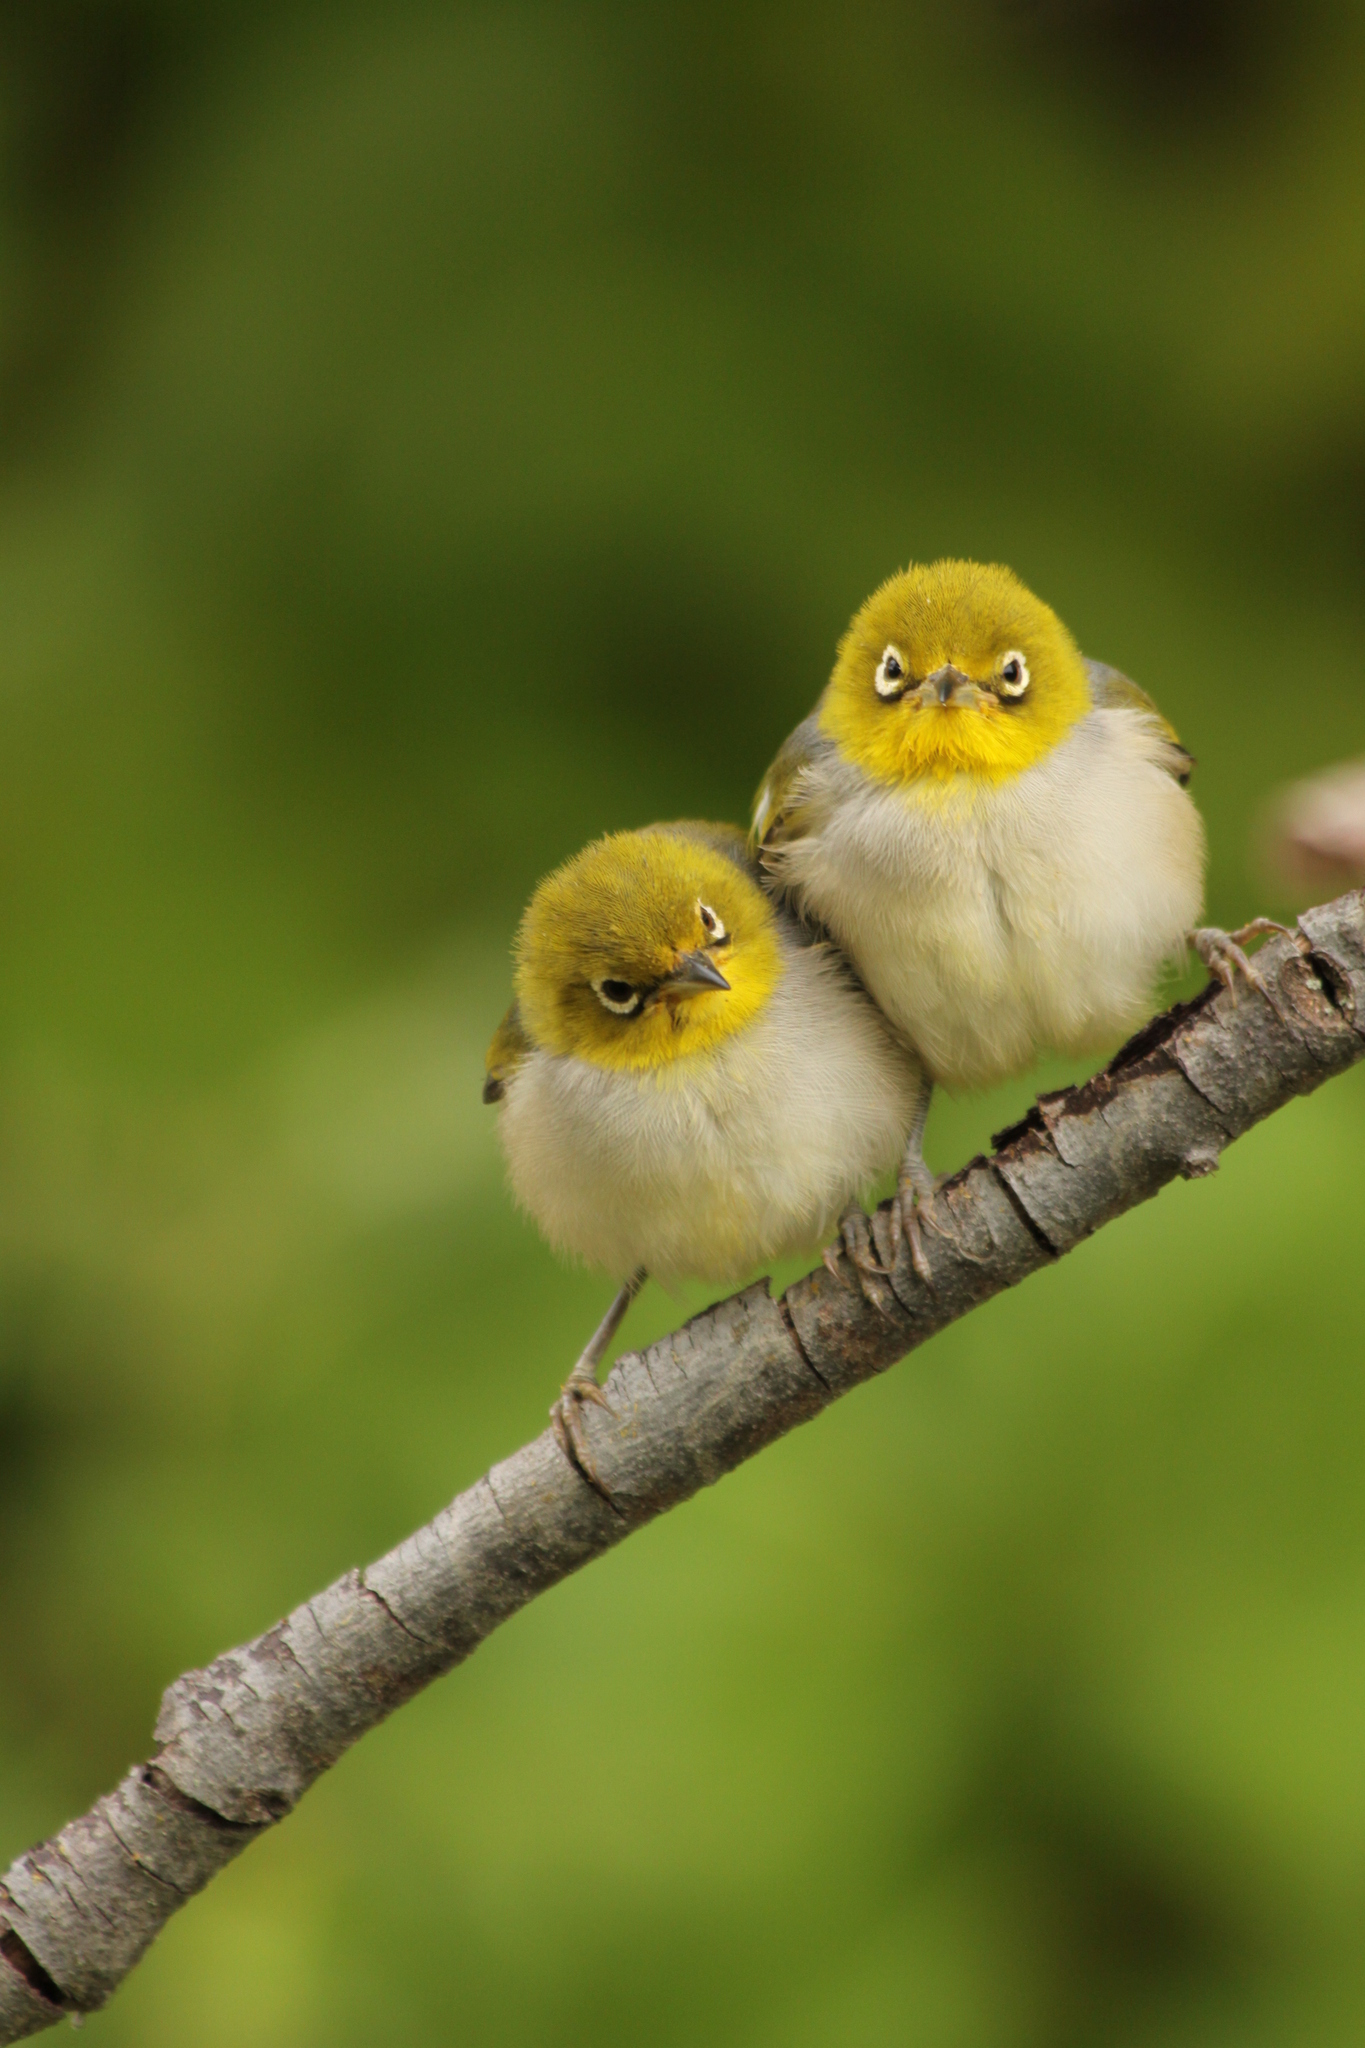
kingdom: Animalia
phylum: Chordata
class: Aves
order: Passeriformes
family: Zosteropidae
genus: Zosterops
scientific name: Zosterops lateralis
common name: Silvereye
